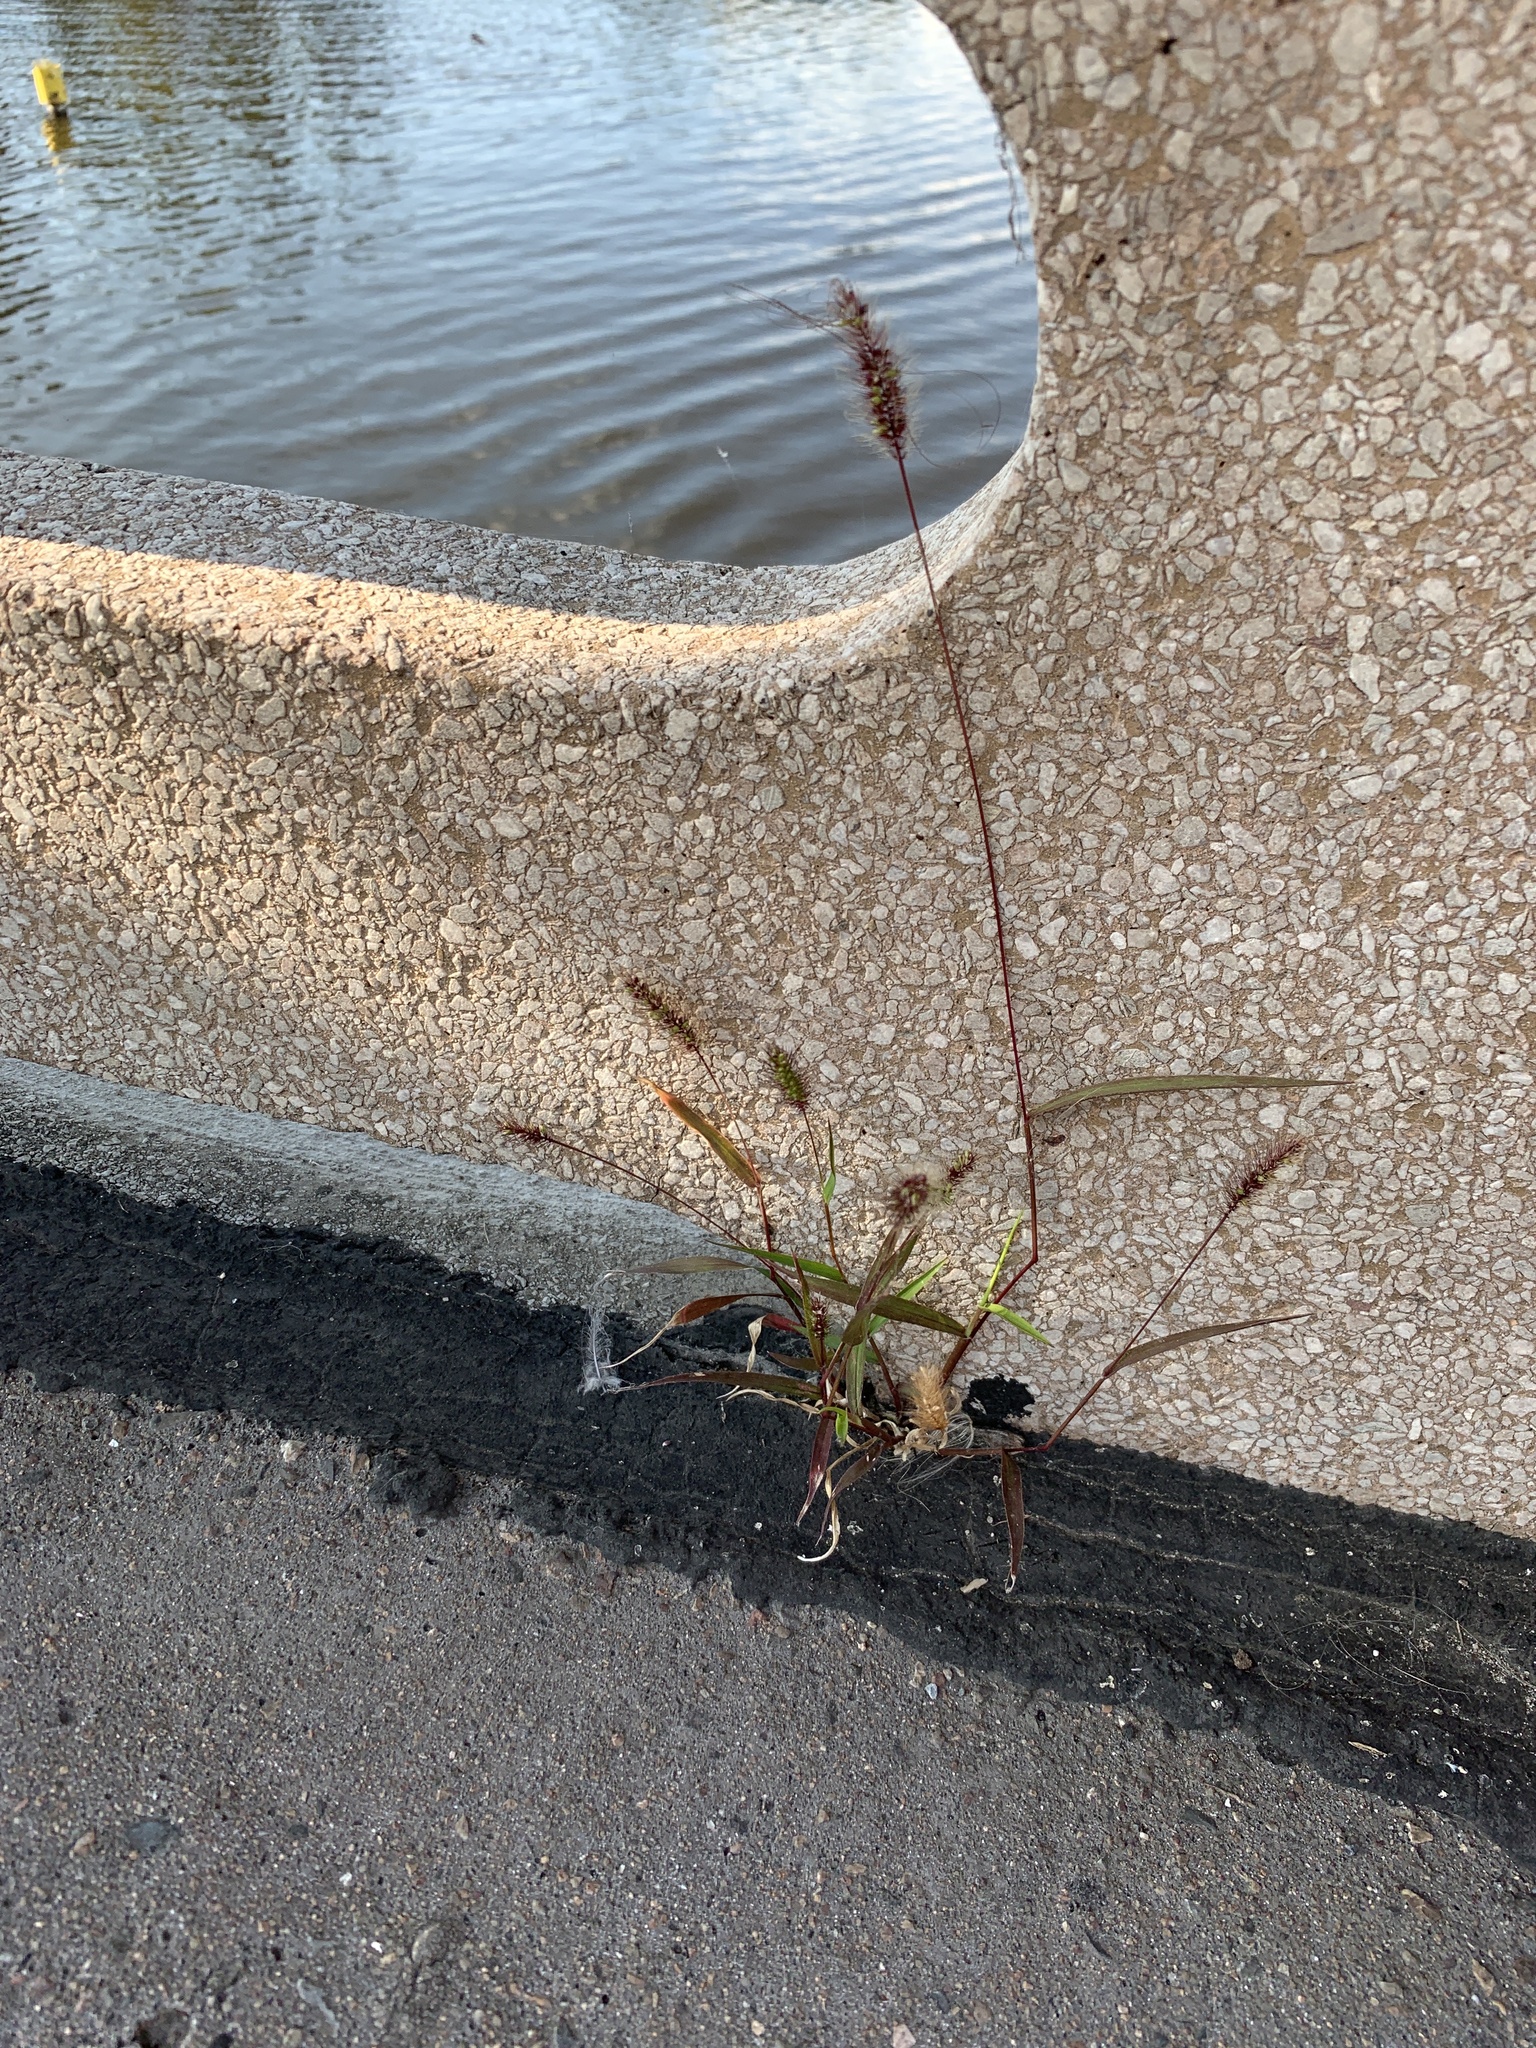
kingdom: Plantae
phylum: Tracheophyta
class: Liliopsida
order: Poales
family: Poaceae
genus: Setaria
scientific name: Setaria viridis
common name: Green bristlegrass
